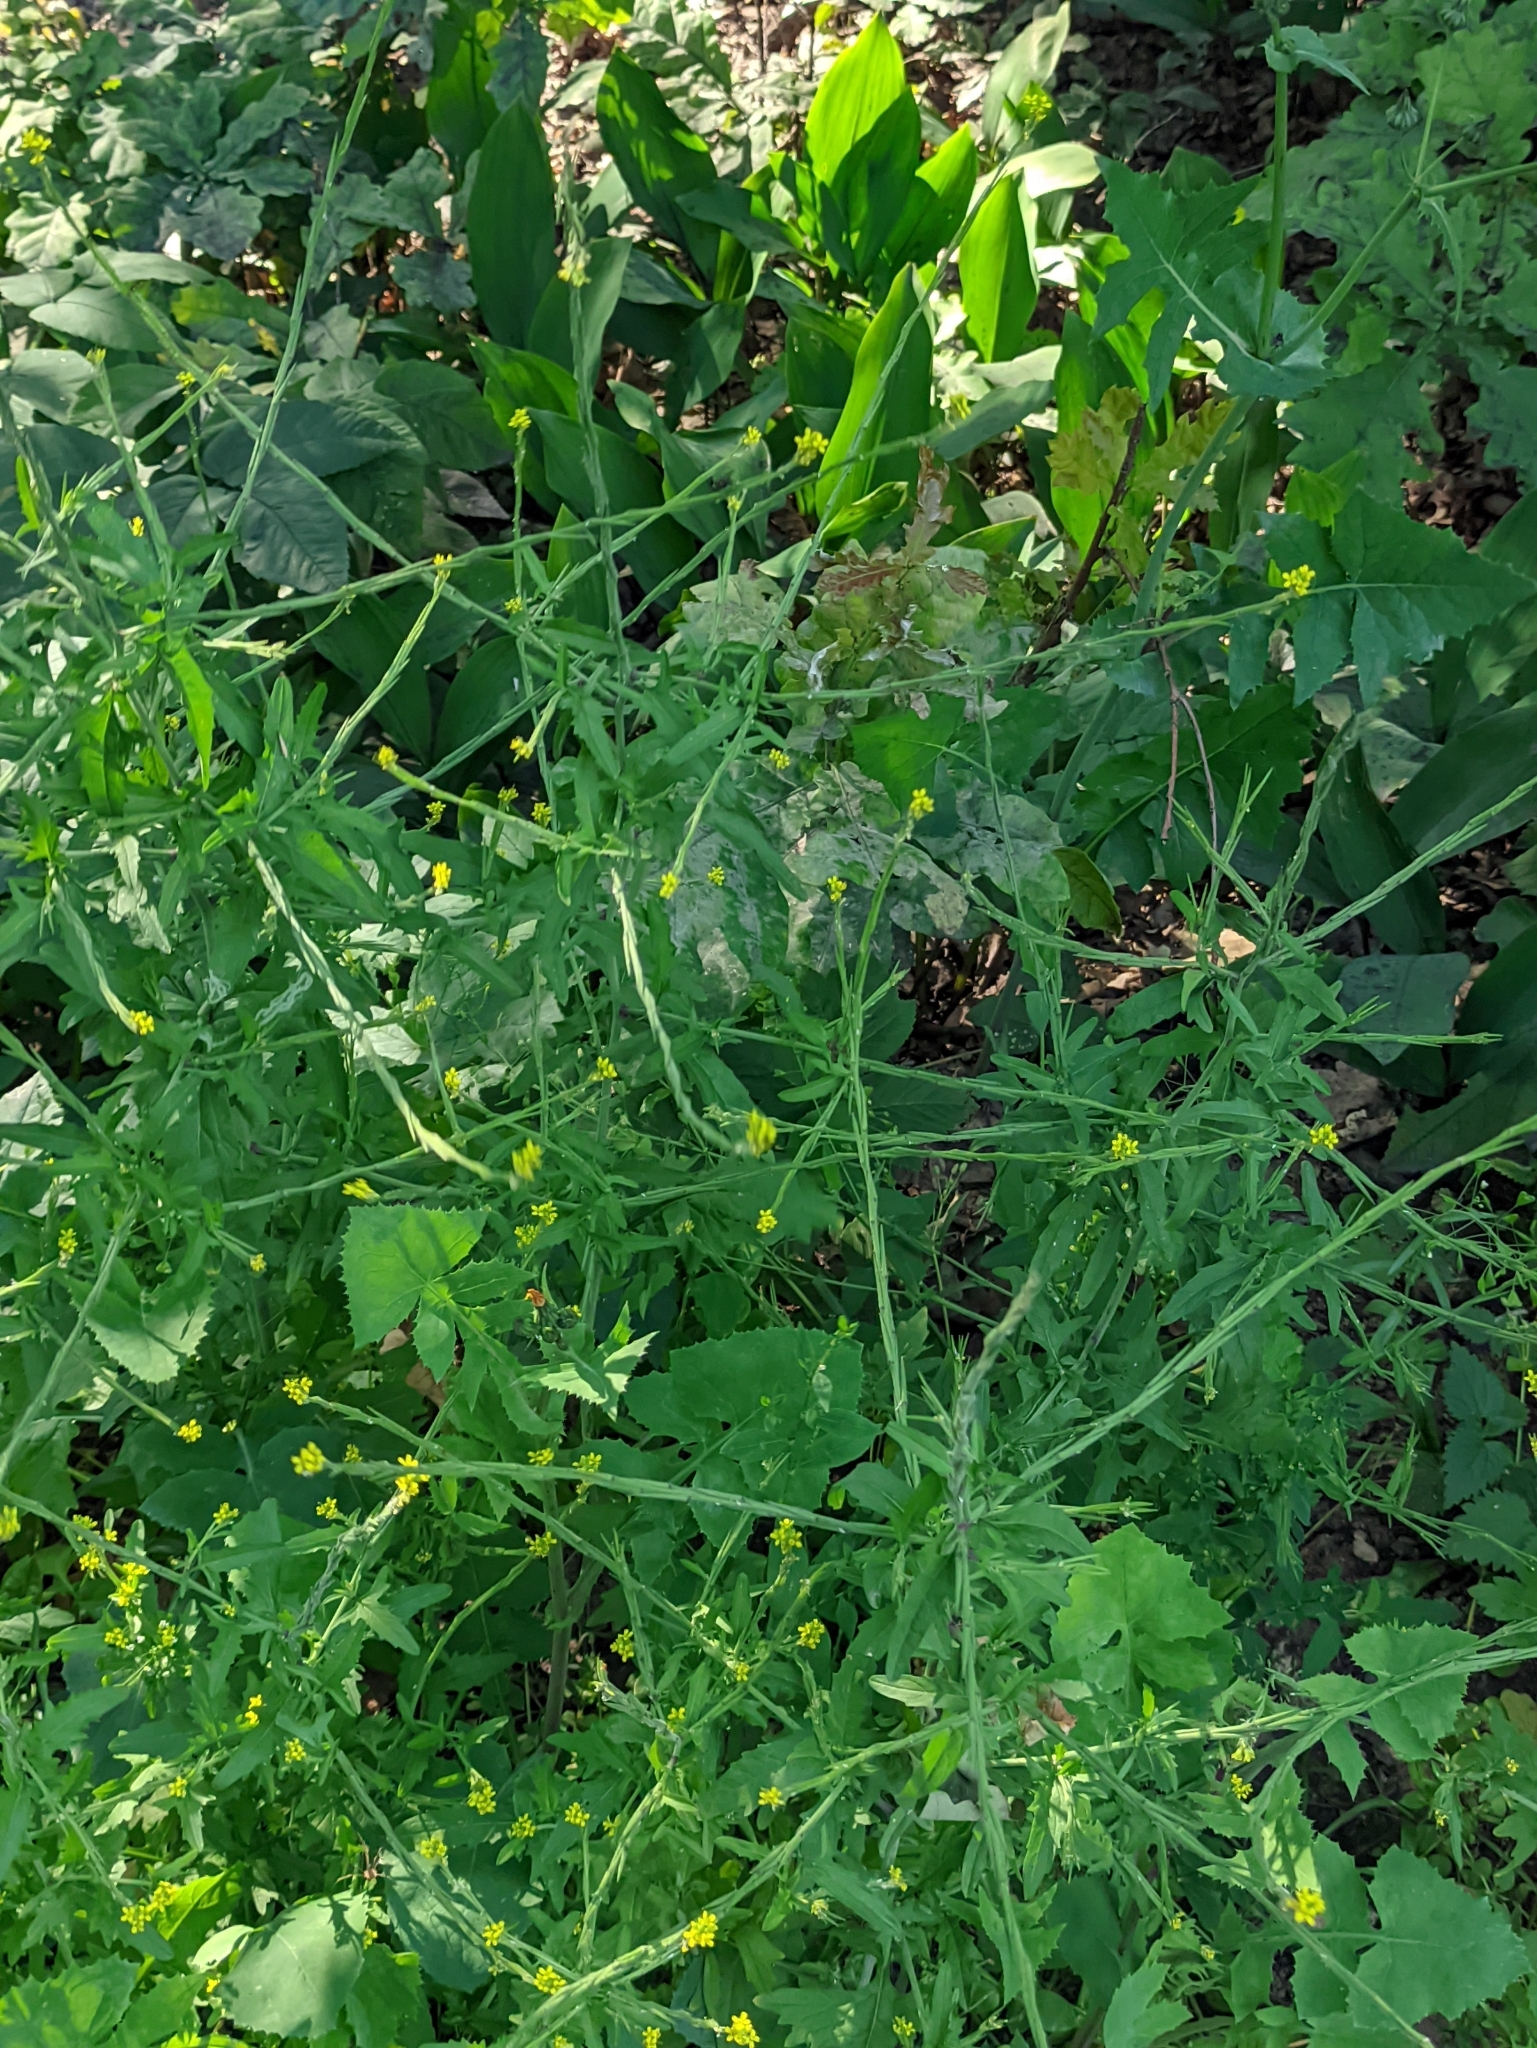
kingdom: Plantae
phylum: Tracheophyta
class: Magnoliopsida
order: Brassicales
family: Brassicaceae
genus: Sisymbrium
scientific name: Sisymbrium officinale
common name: Hedge mustard
